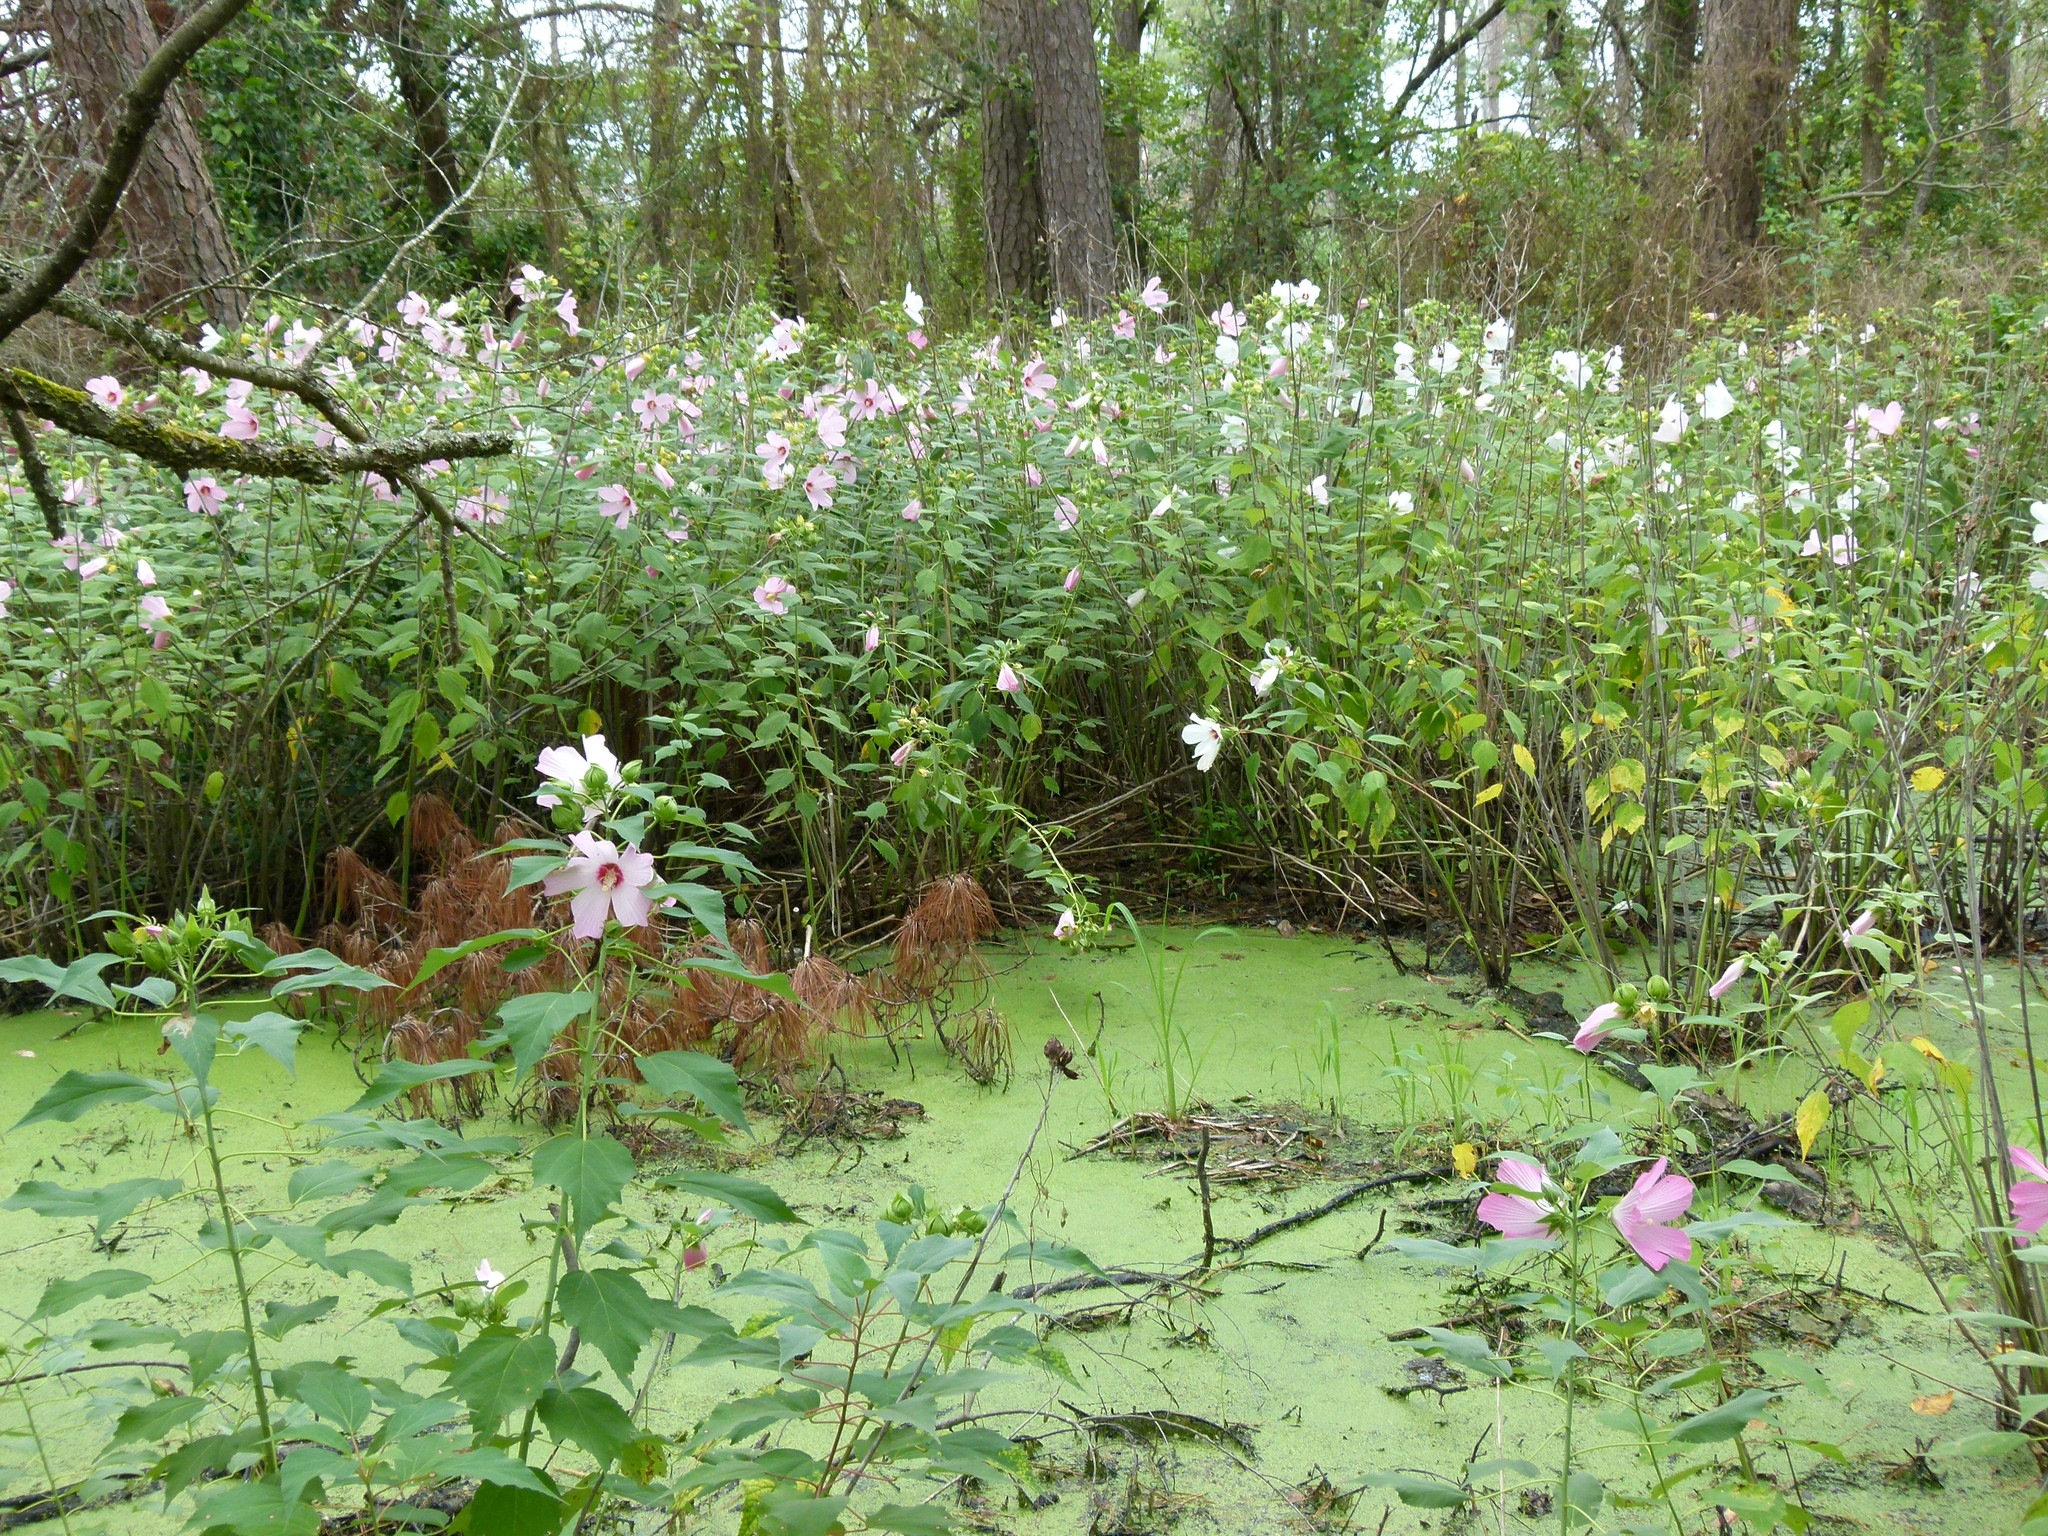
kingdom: Plantae
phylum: Tracheophyta
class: Magnoliopsida
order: Malvales
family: Malvaceae
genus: Hibiscus
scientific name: Hibiscus moscheutos
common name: Common rose-mallow
